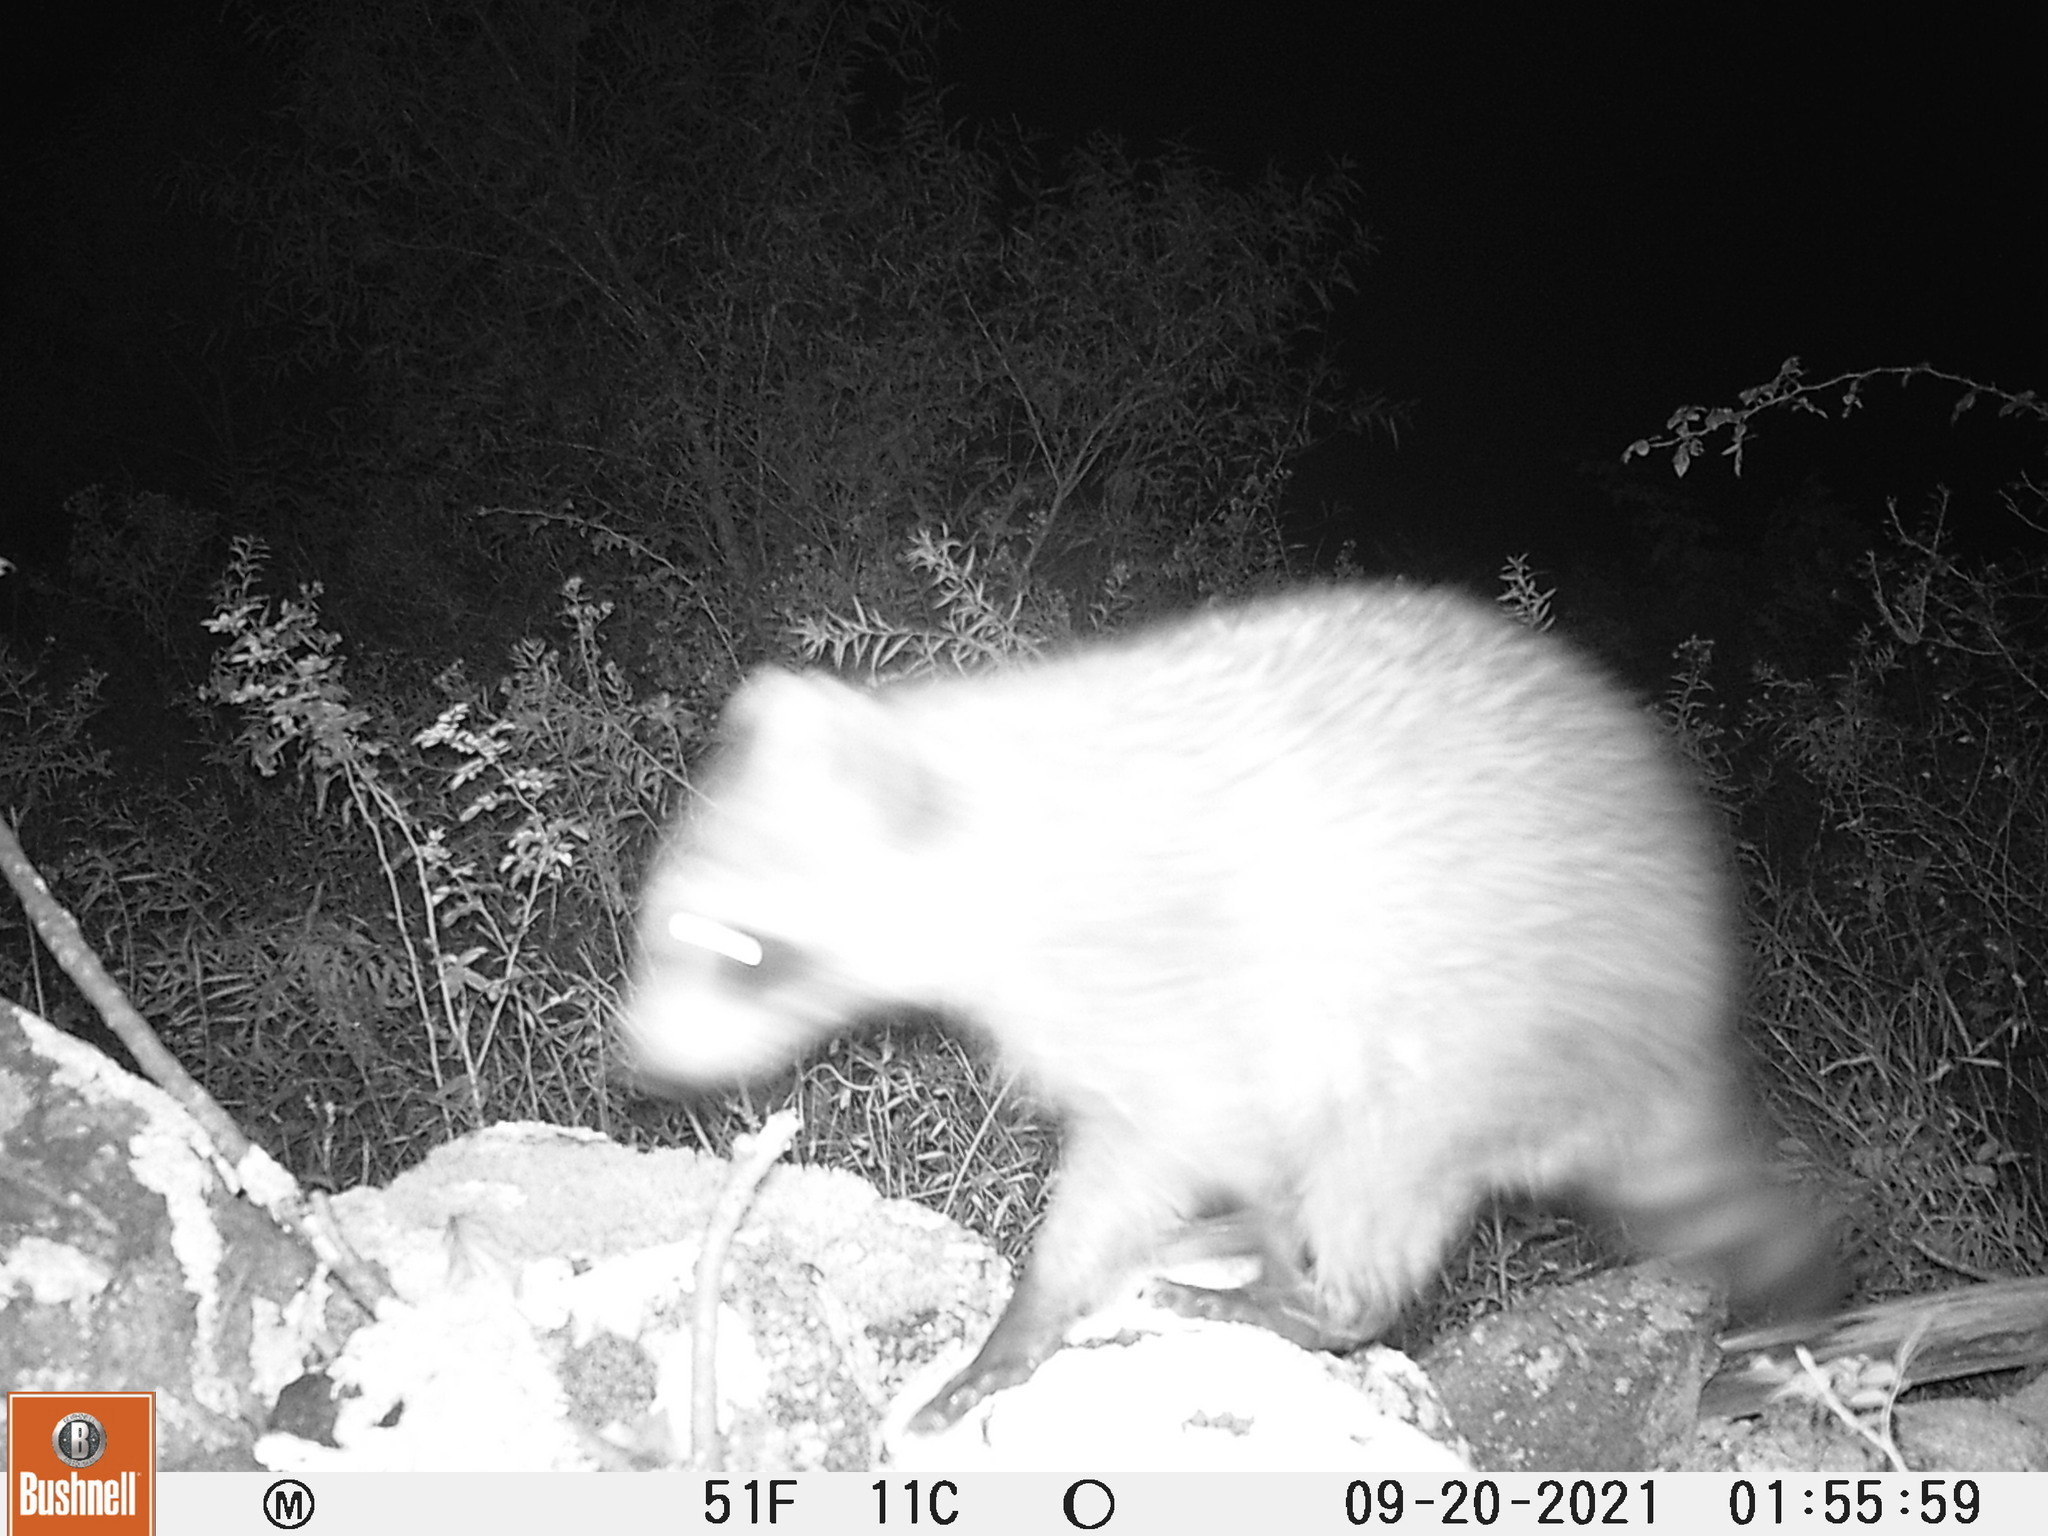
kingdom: Animalia
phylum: Chordata
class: Mammalia
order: Carnivora
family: Procyonidae
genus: Procyon
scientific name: Procyon lotor
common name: Raccoon
